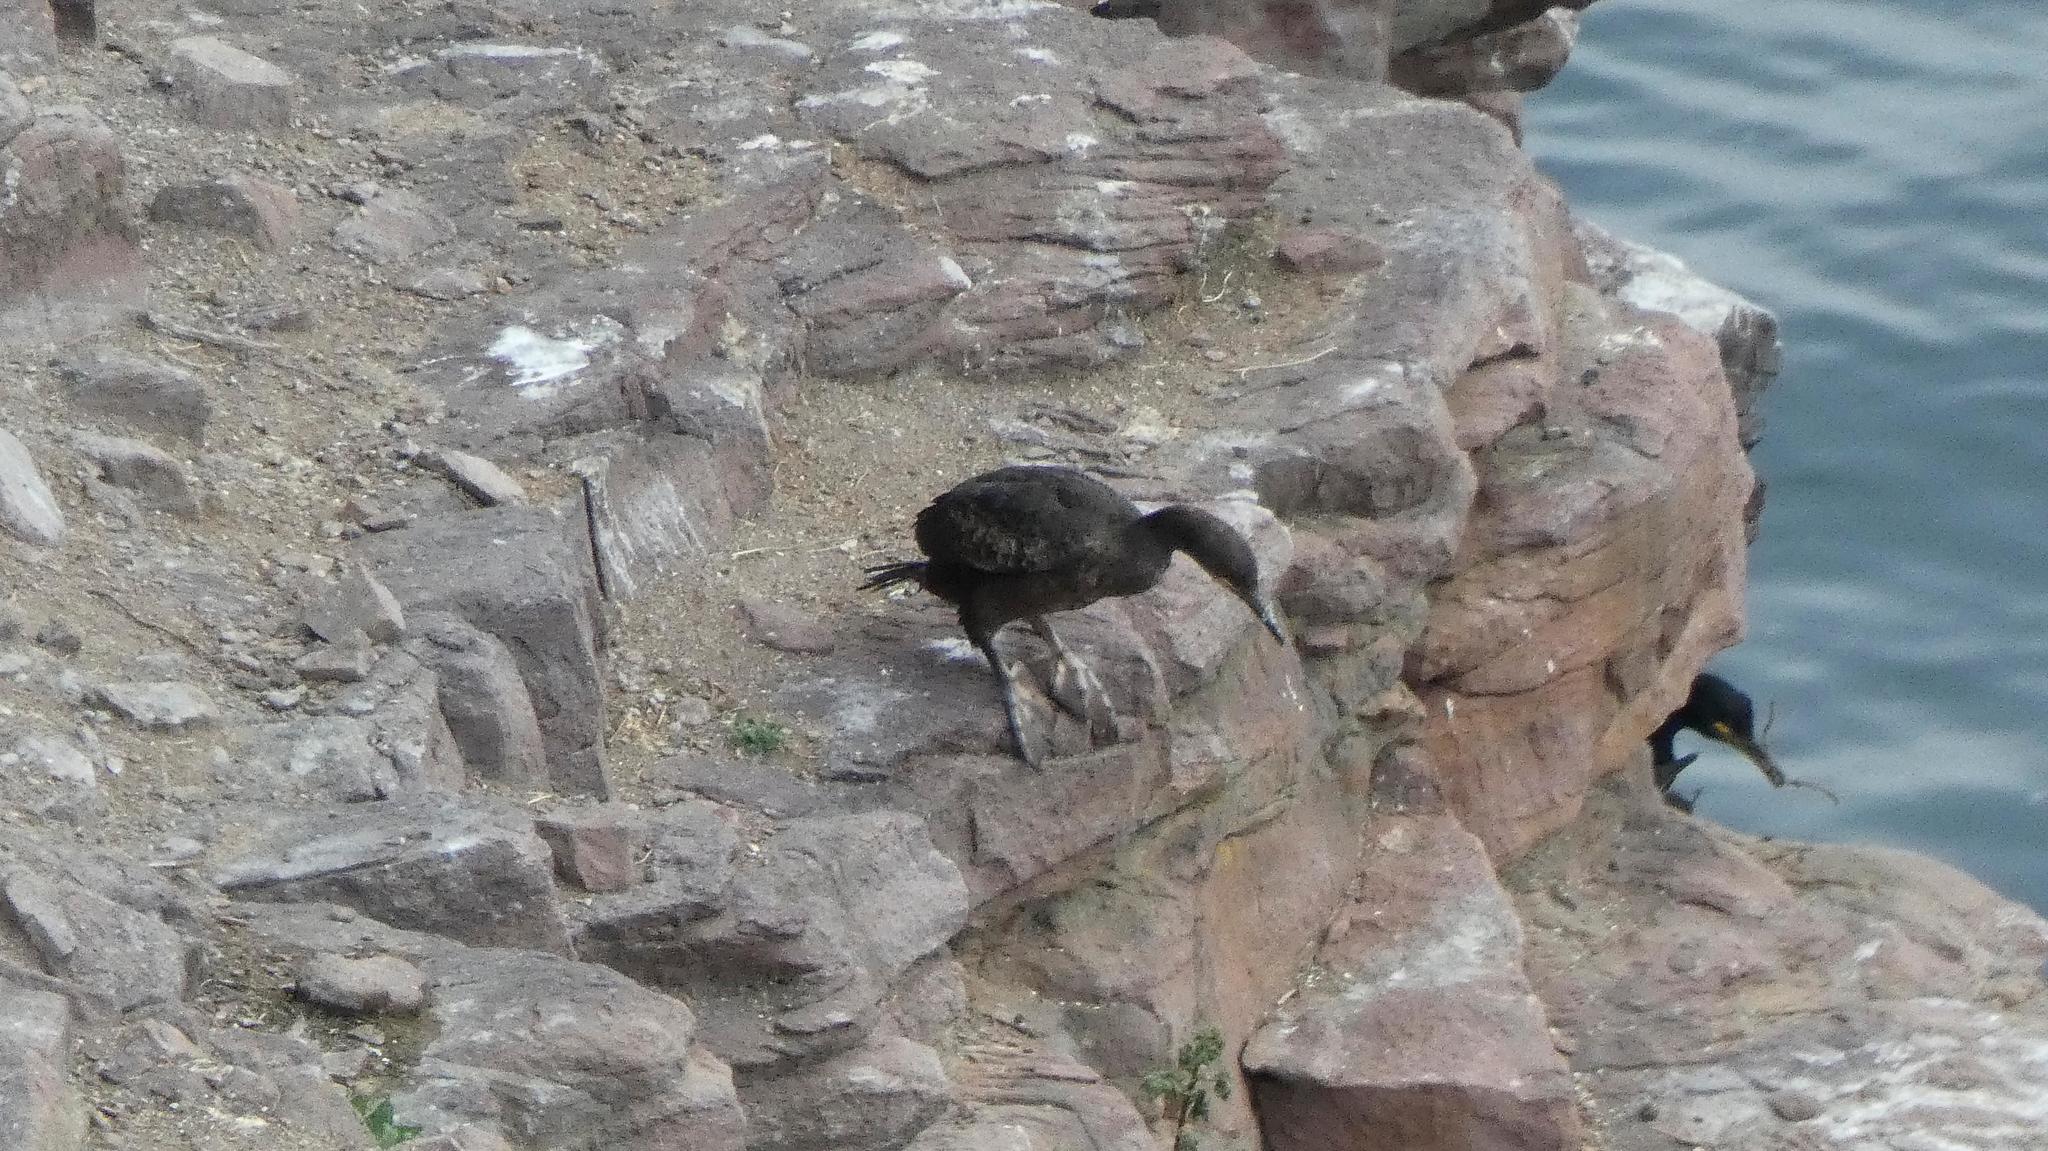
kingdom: Animalia
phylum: Chordata
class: Aves
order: Suliformes
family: Phalacrocoracidae
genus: Phalacrocorax
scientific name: Phalacrocorax aristotelis
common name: European shag
